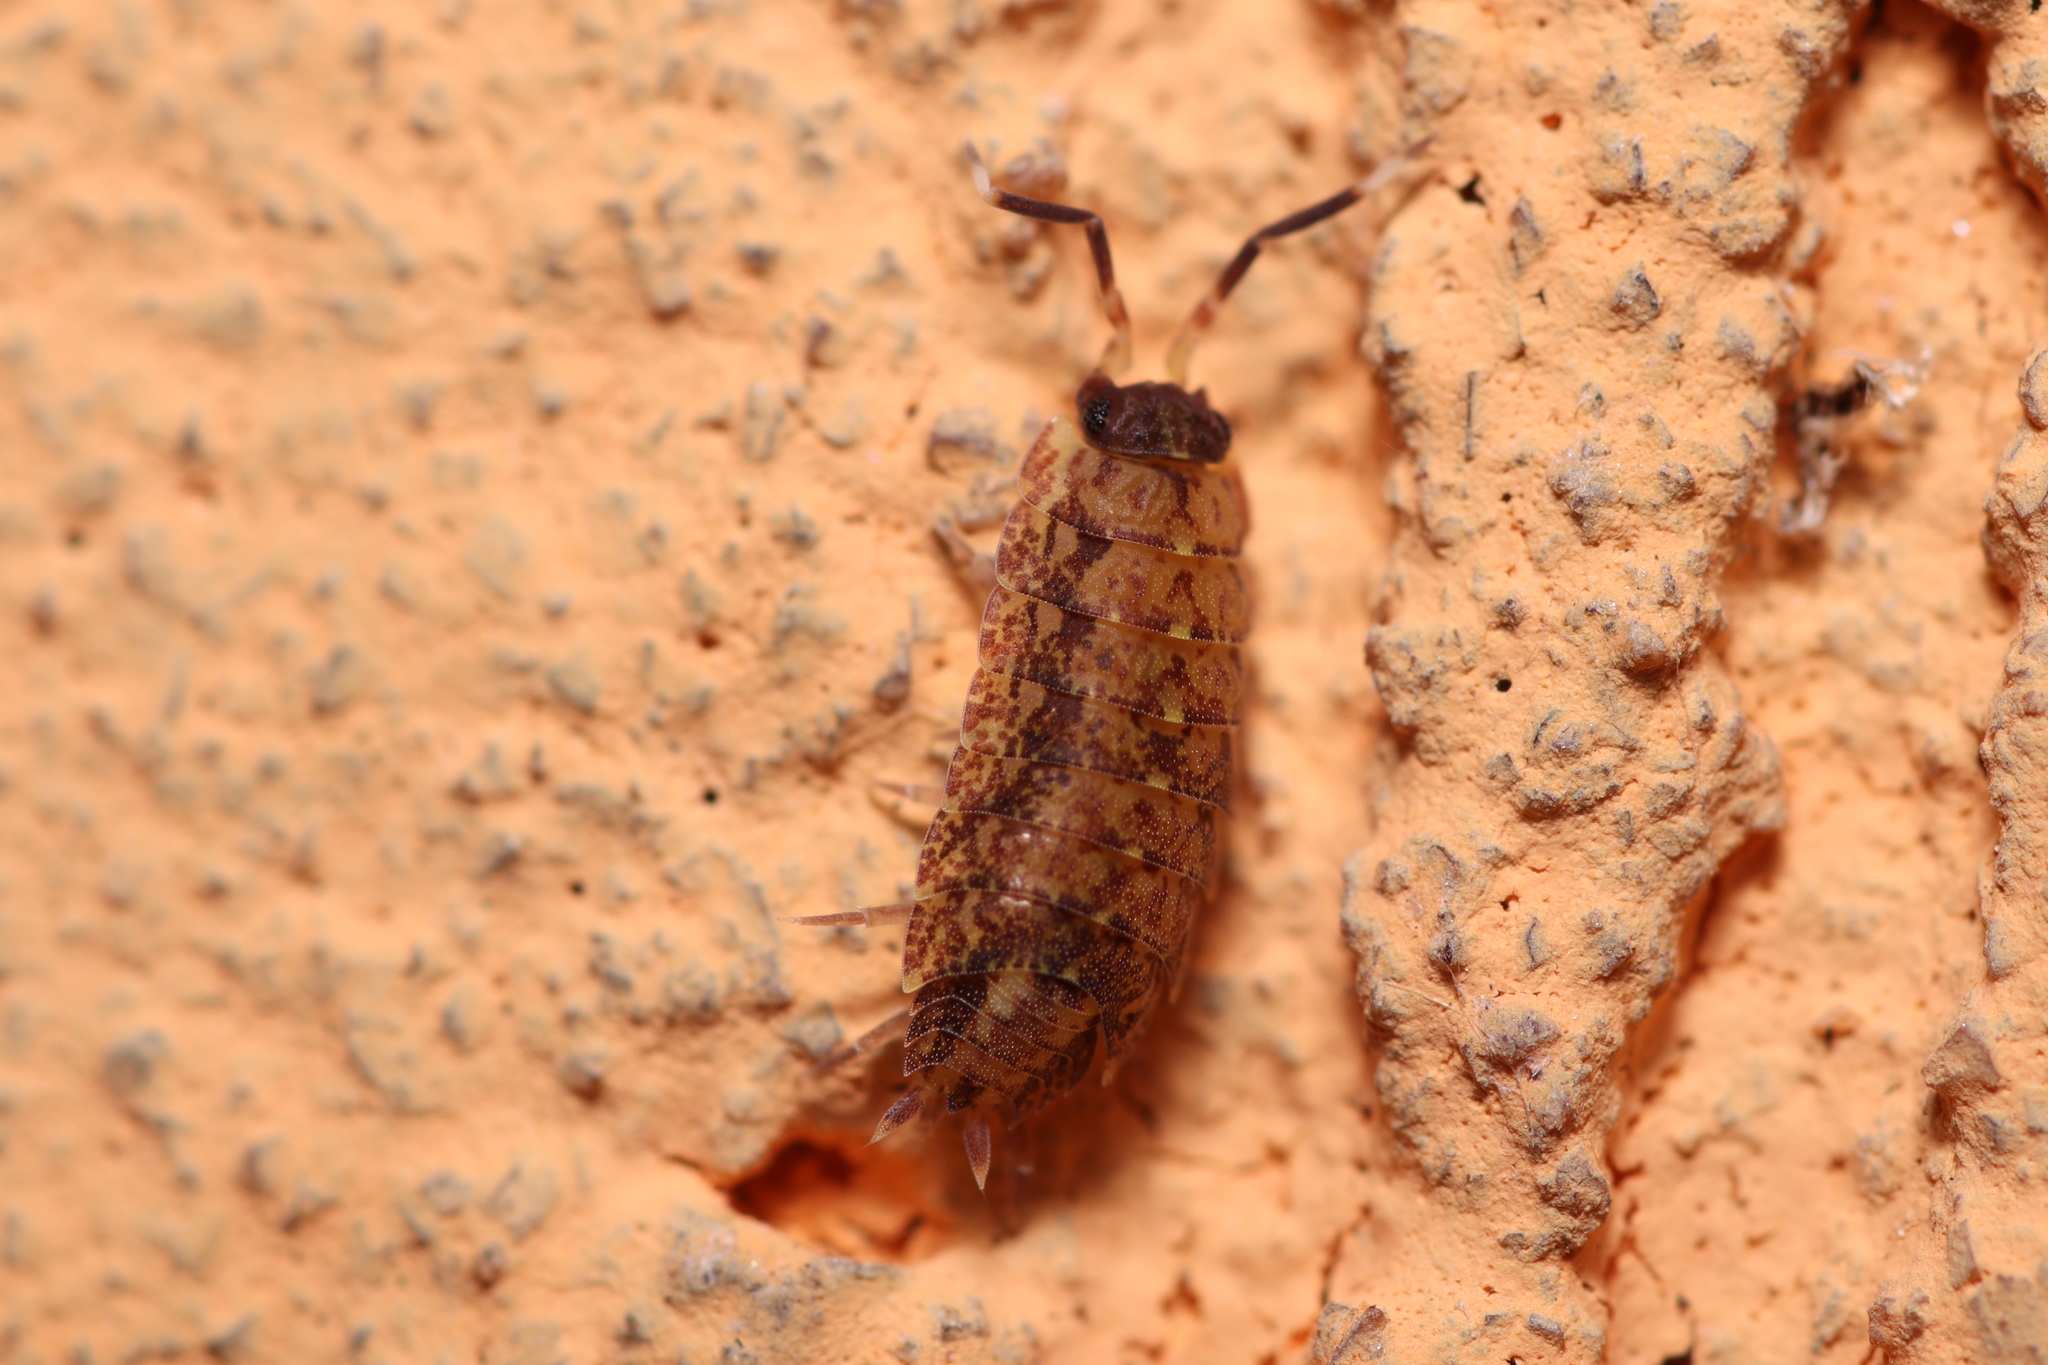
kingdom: Animalia
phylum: Arthropoda
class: Malacostraca
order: Isopoda
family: Dubioniscidae
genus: Dubioniscus
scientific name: Dubioniscus marmoratus
